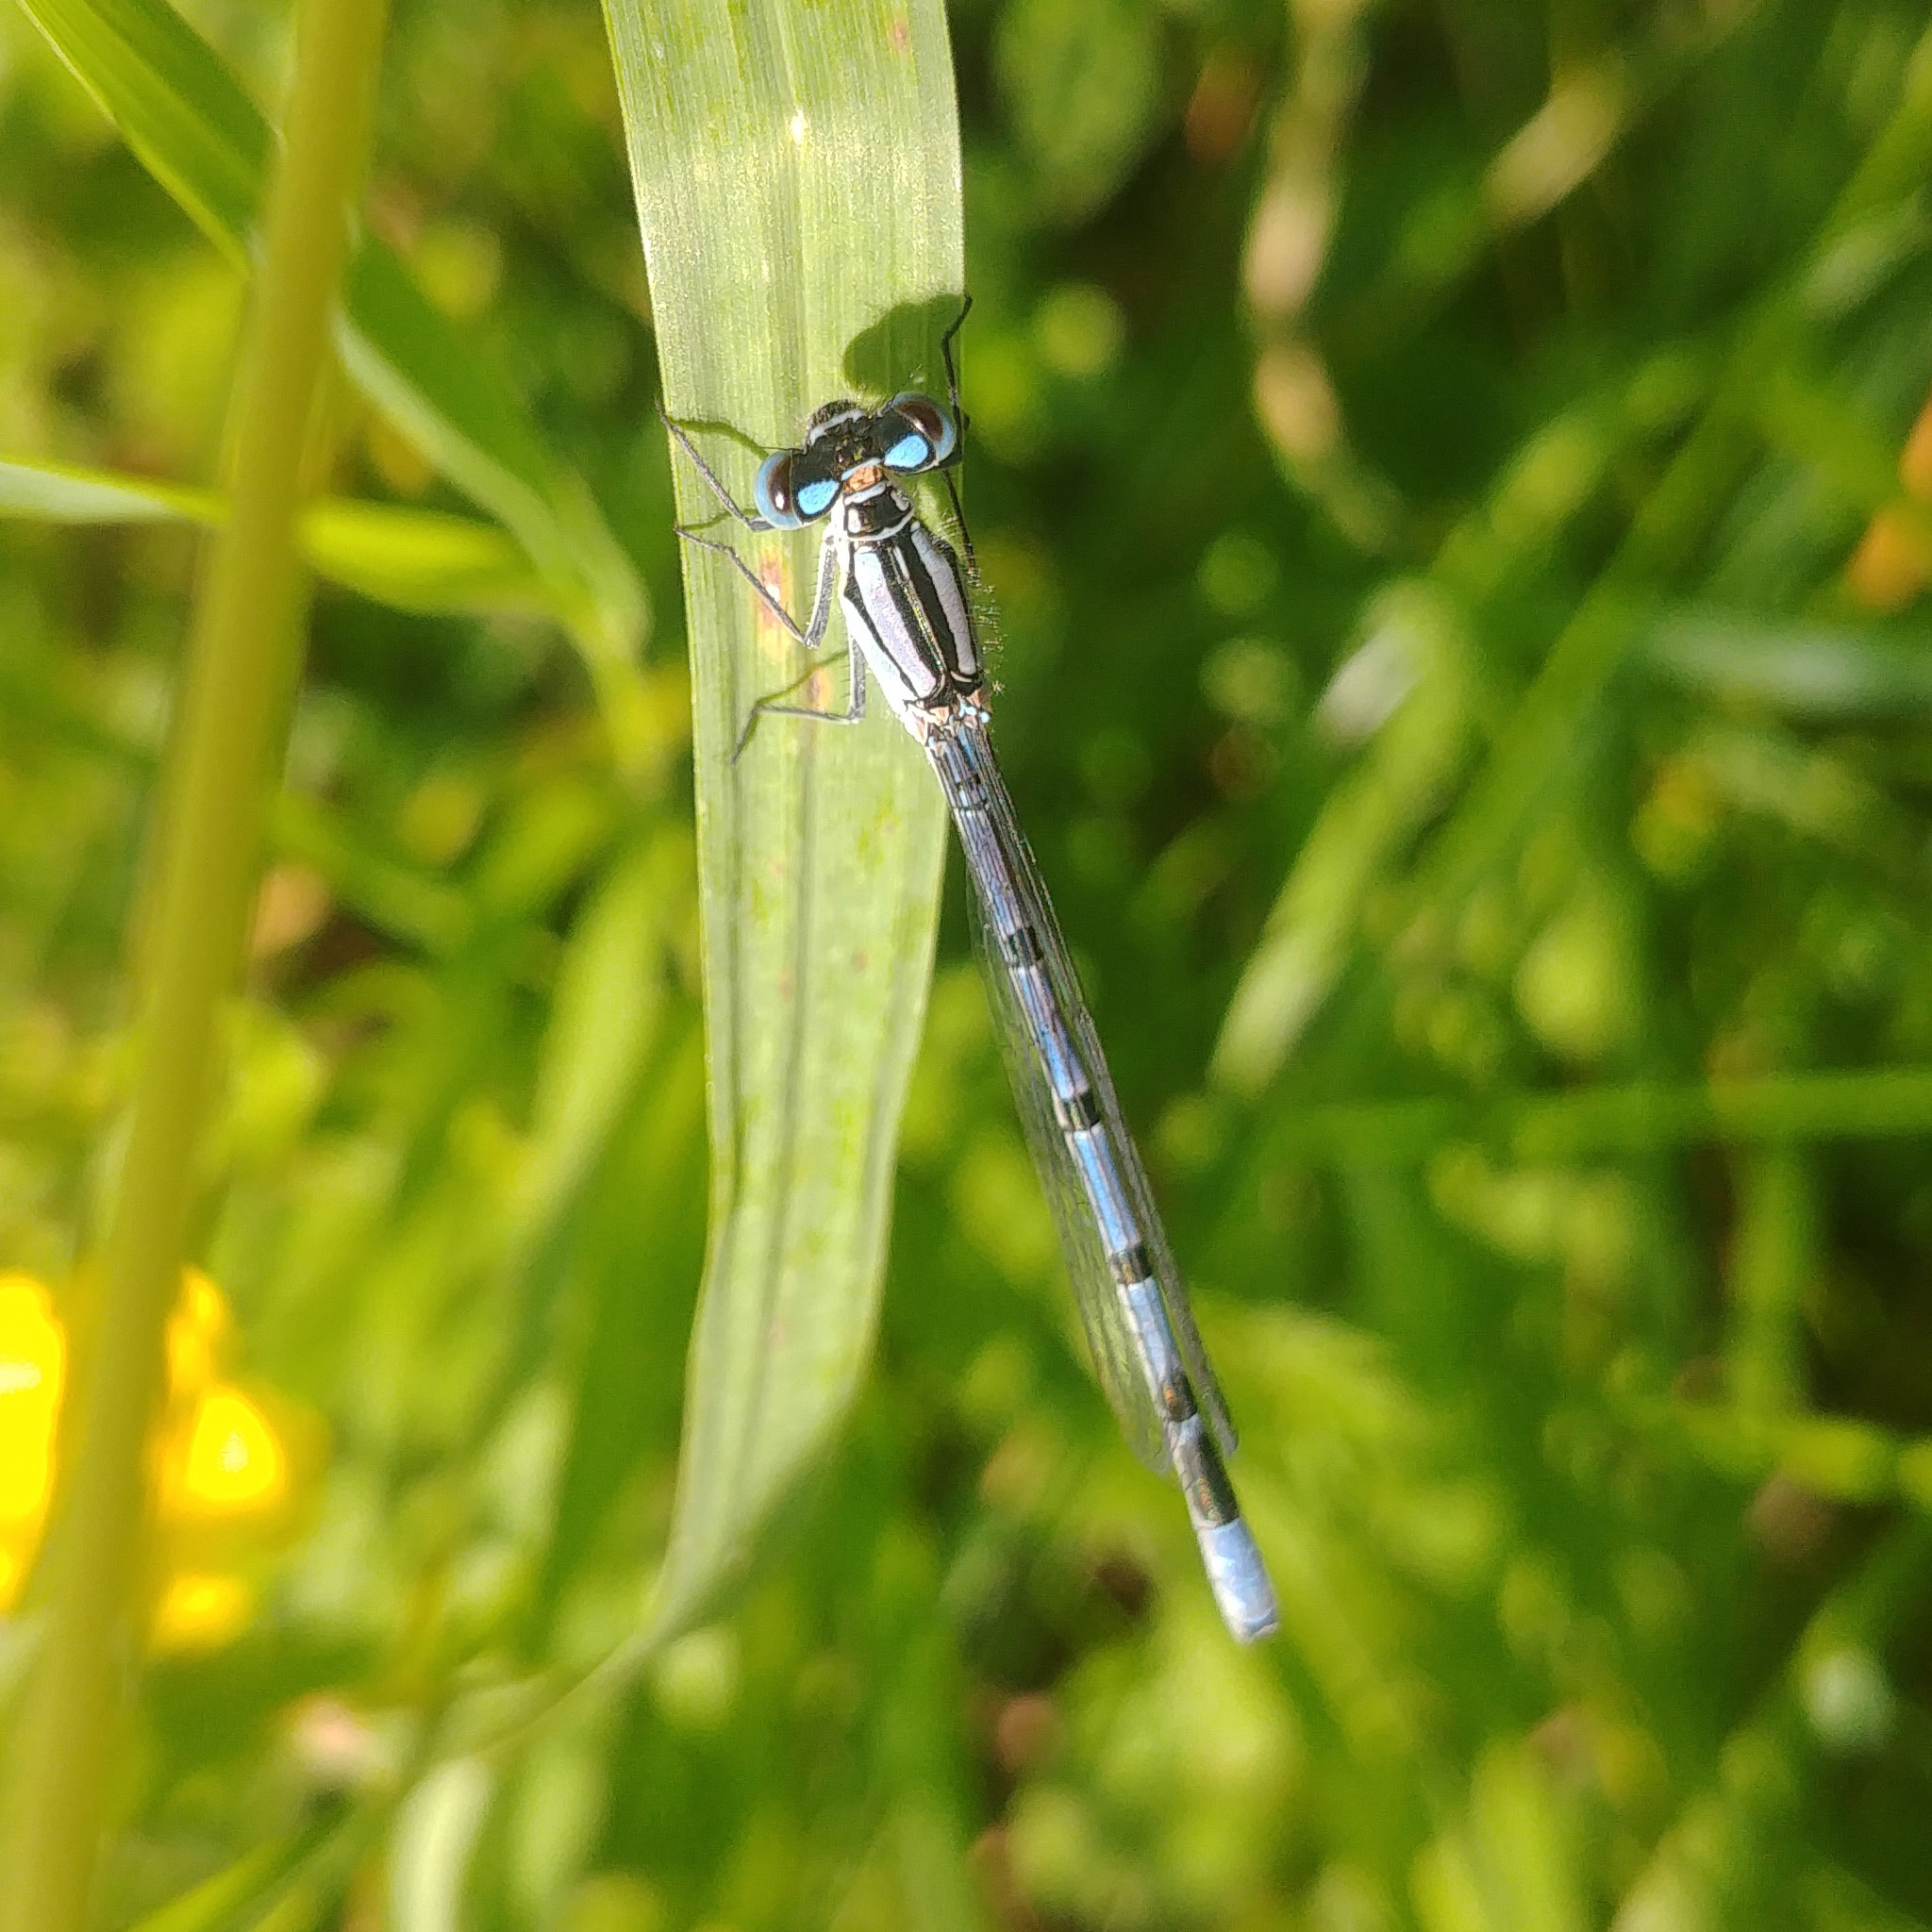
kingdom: Animalia
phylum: Arthropoda
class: Insecta
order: Odonata
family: Coenagrionidae
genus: Enallagma
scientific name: Enallagma cyathigerum
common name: Common blue damselfly
